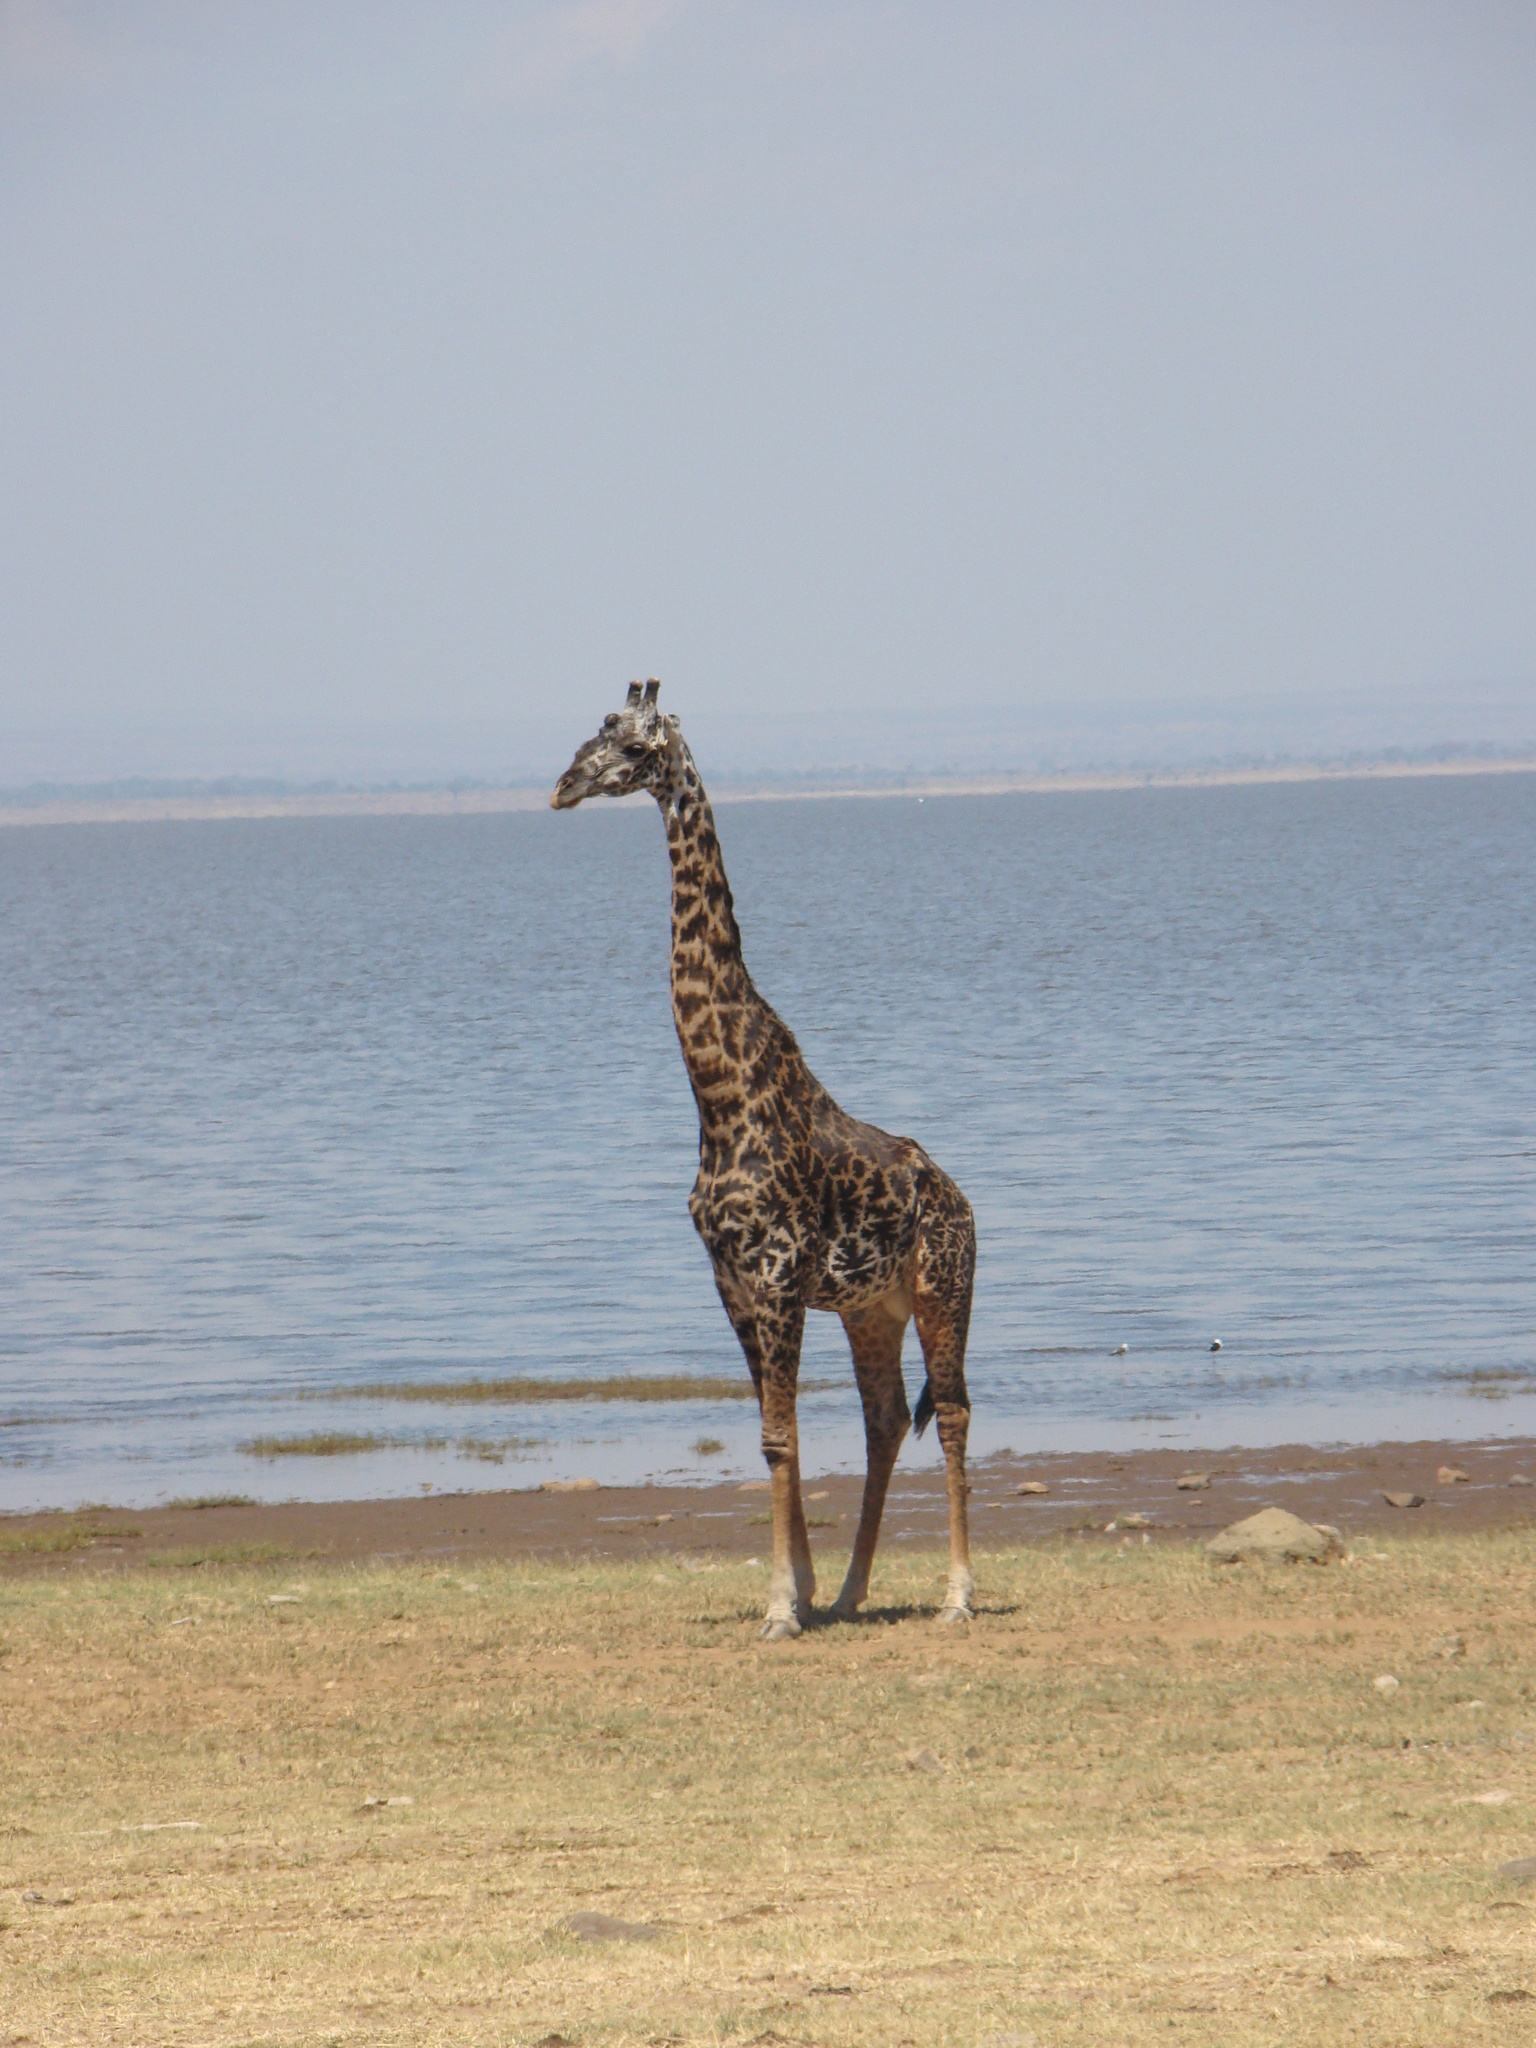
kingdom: Animalia
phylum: Chordata
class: Mammalia
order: Artiodactyla
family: Giraffidae
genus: Giraffa
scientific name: Giraffa tippelskirchi
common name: Masai giraffe
